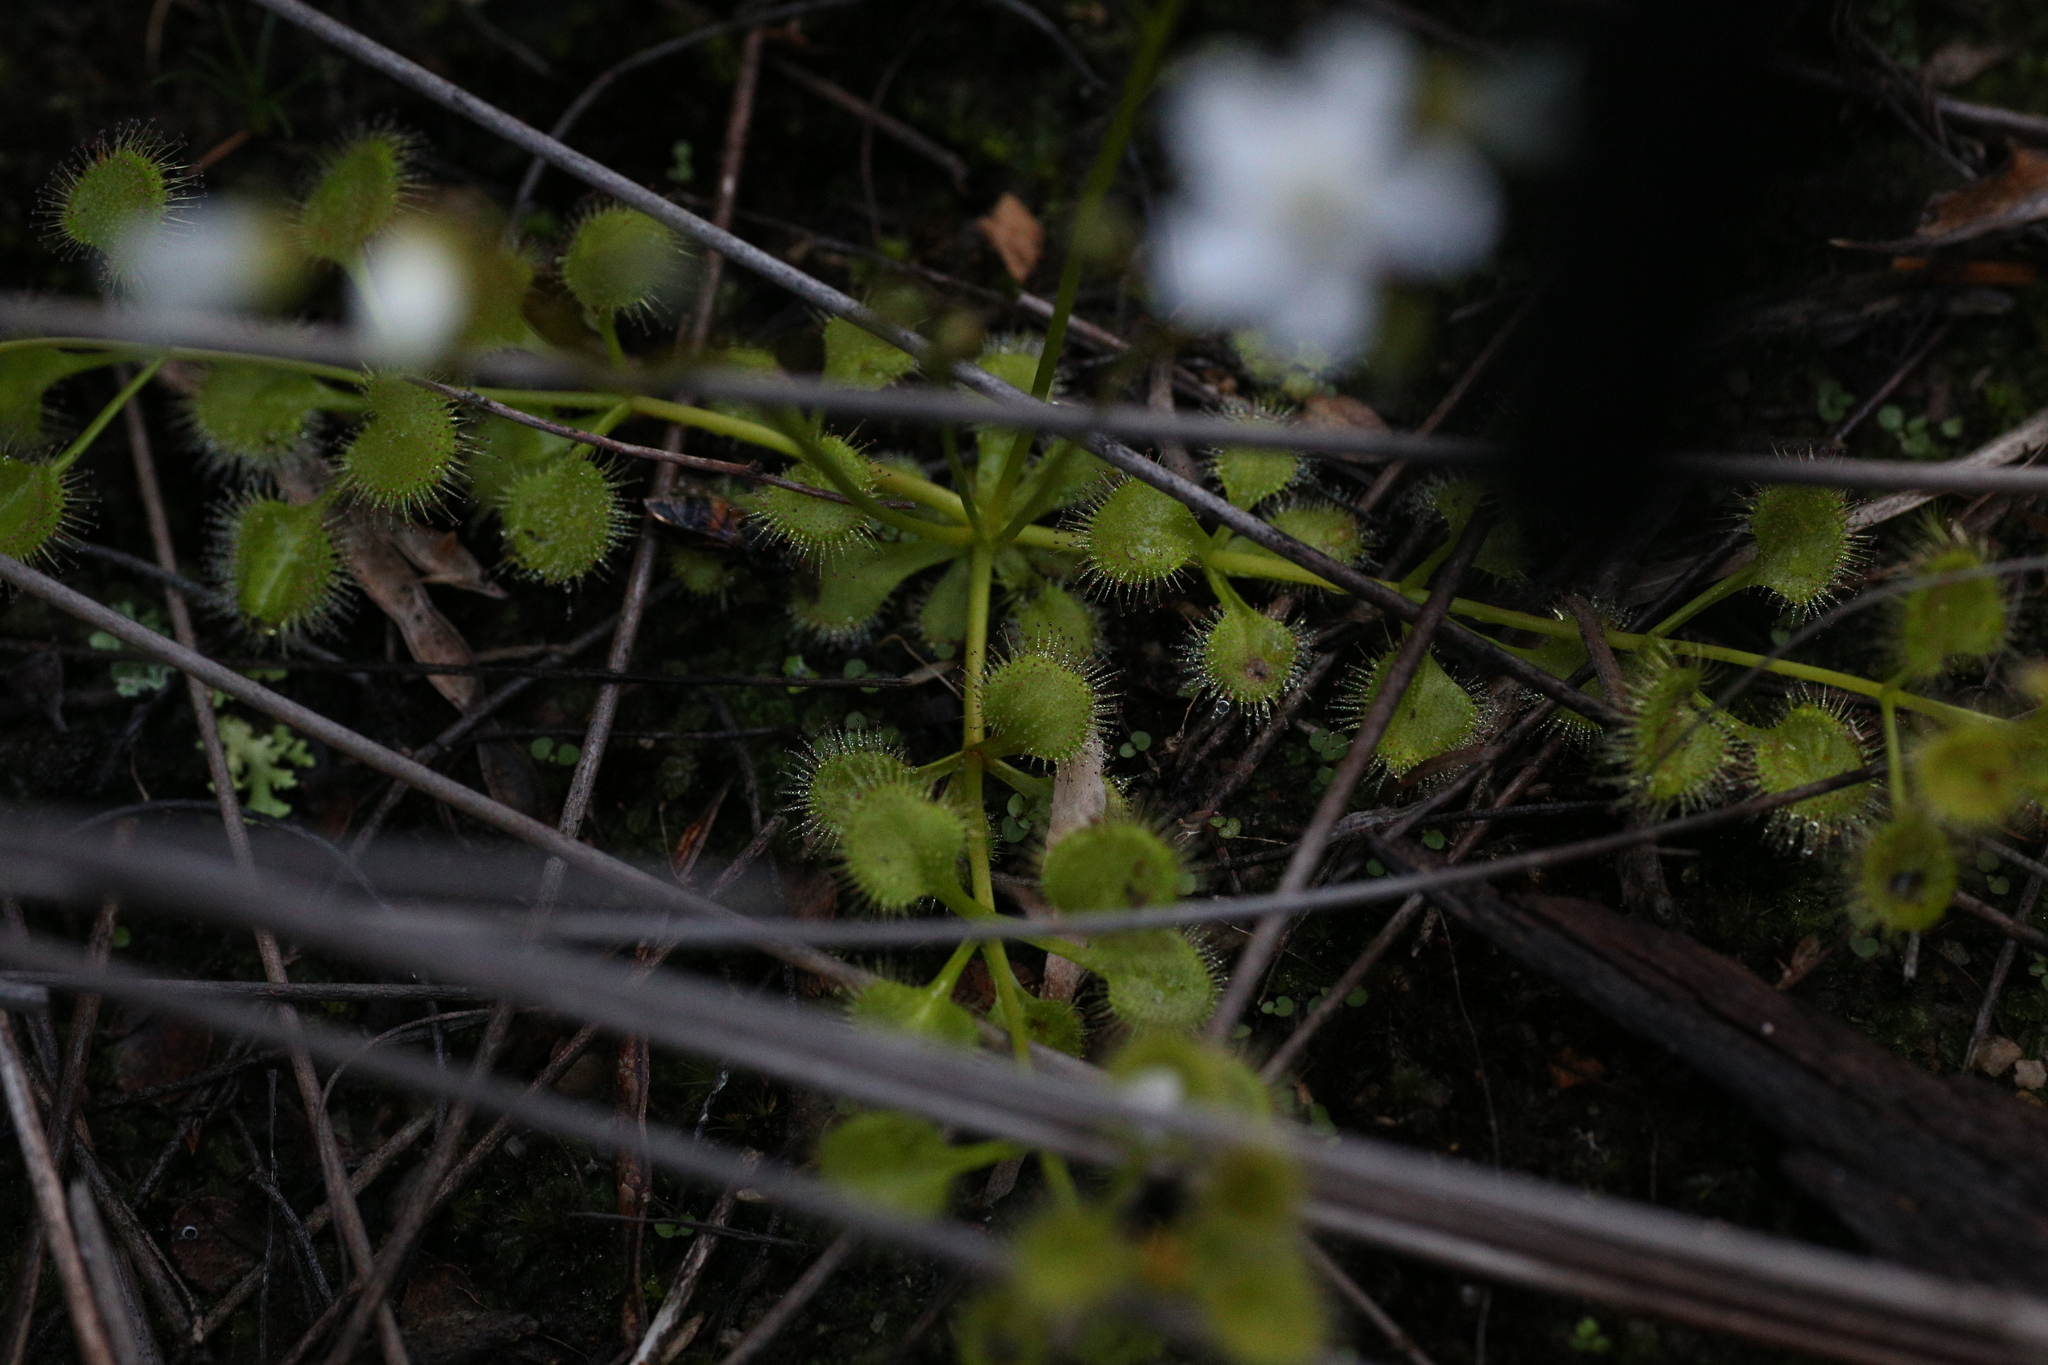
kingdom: Plantae
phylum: Tracheophyta
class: Magnoliopsida
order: Caryophyllales
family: Droseraceae
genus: Drosera
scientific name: Drosera rupicola
